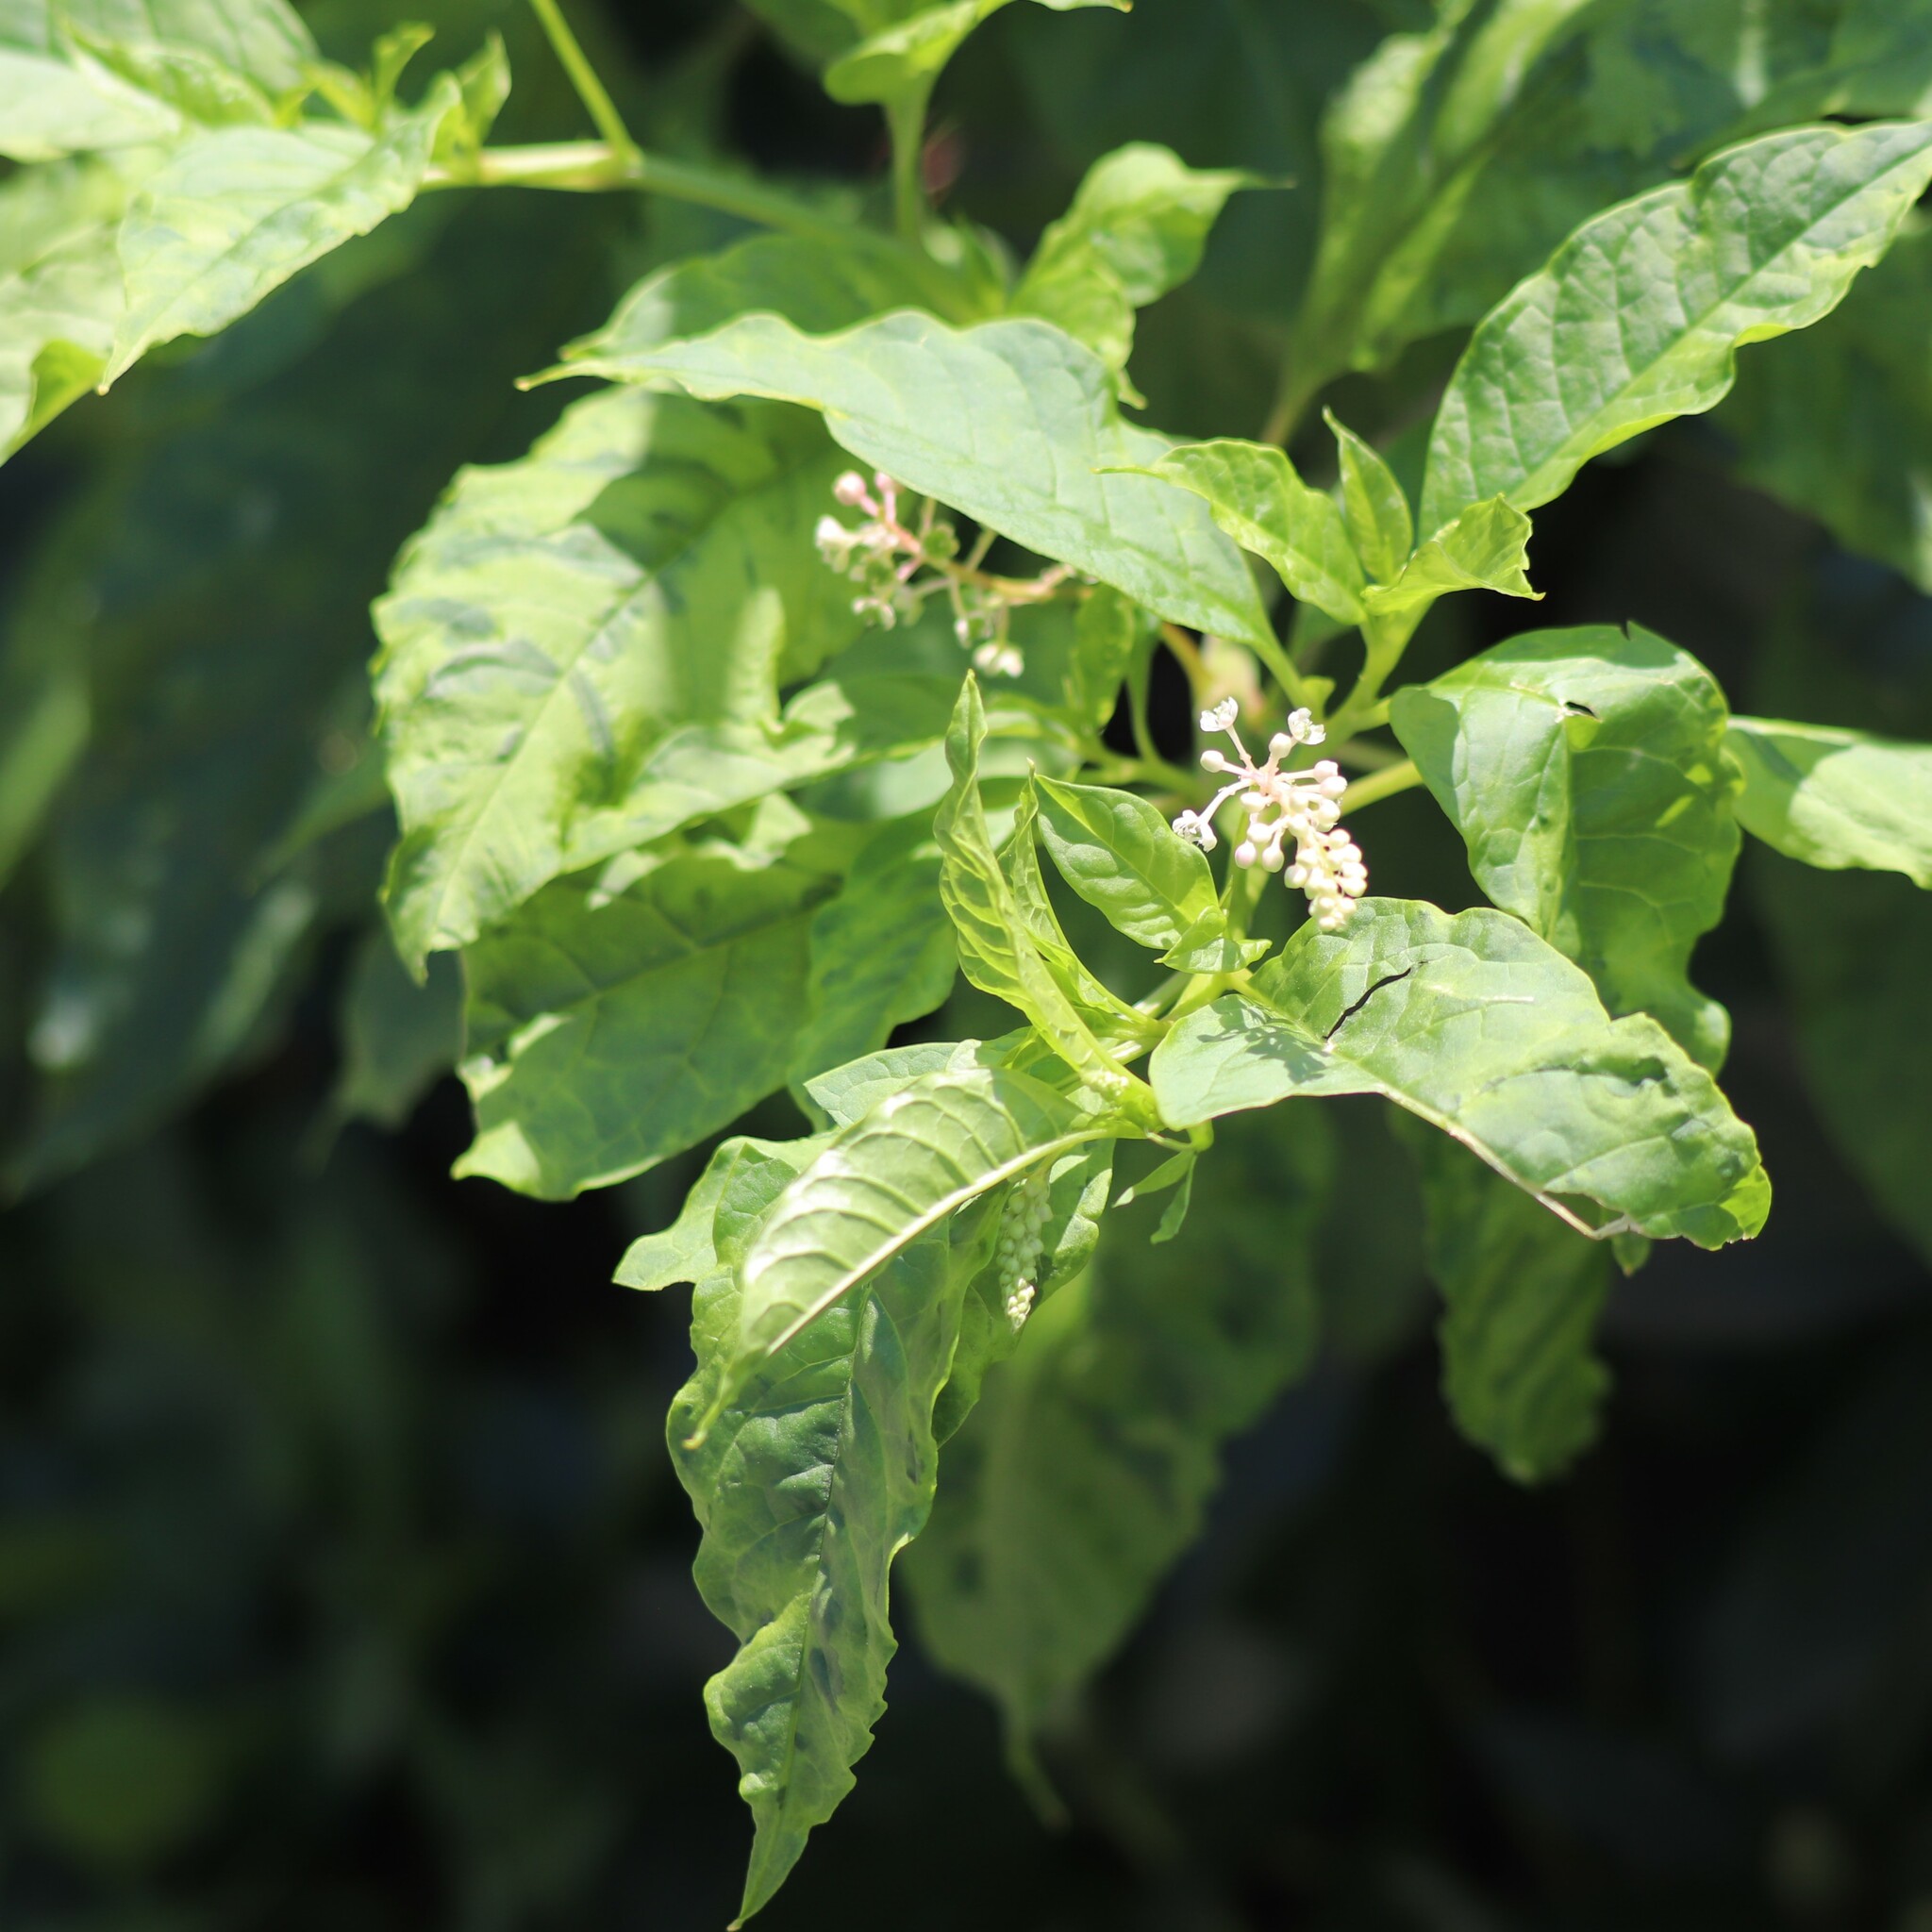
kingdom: Viruses
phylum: Pisuviricota
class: Stelpaviricetes
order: Patatavirales
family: Potyviridae
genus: Potyvirus
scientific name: Potyvirus Pokeweed mosaic virus
